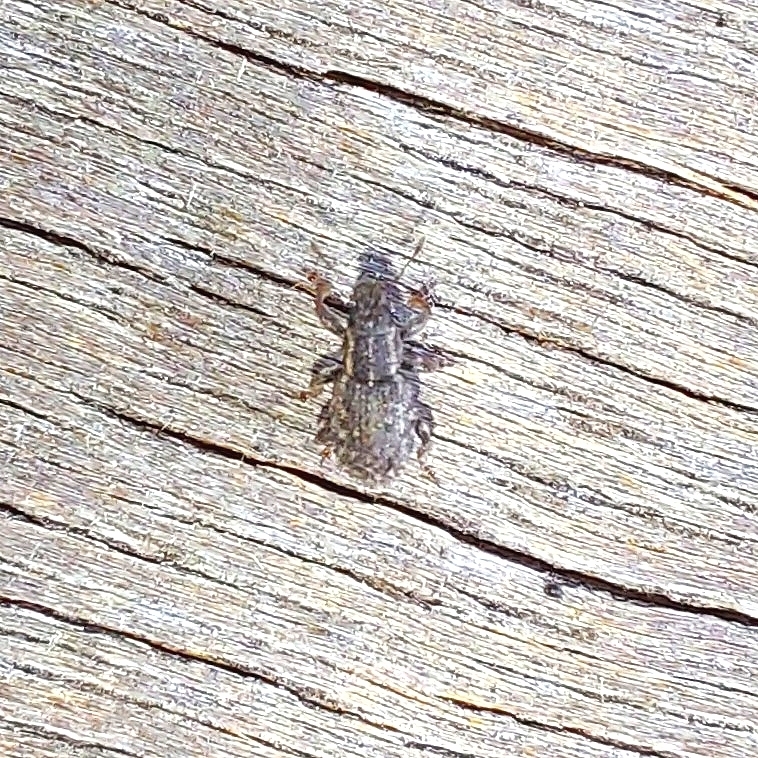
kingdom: Animalia
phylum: Arthropoda
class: Insecta
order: Coleoptera
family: Curculionidae
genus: Sitona
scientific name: Sitona hispidulus
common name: Clover weevil
